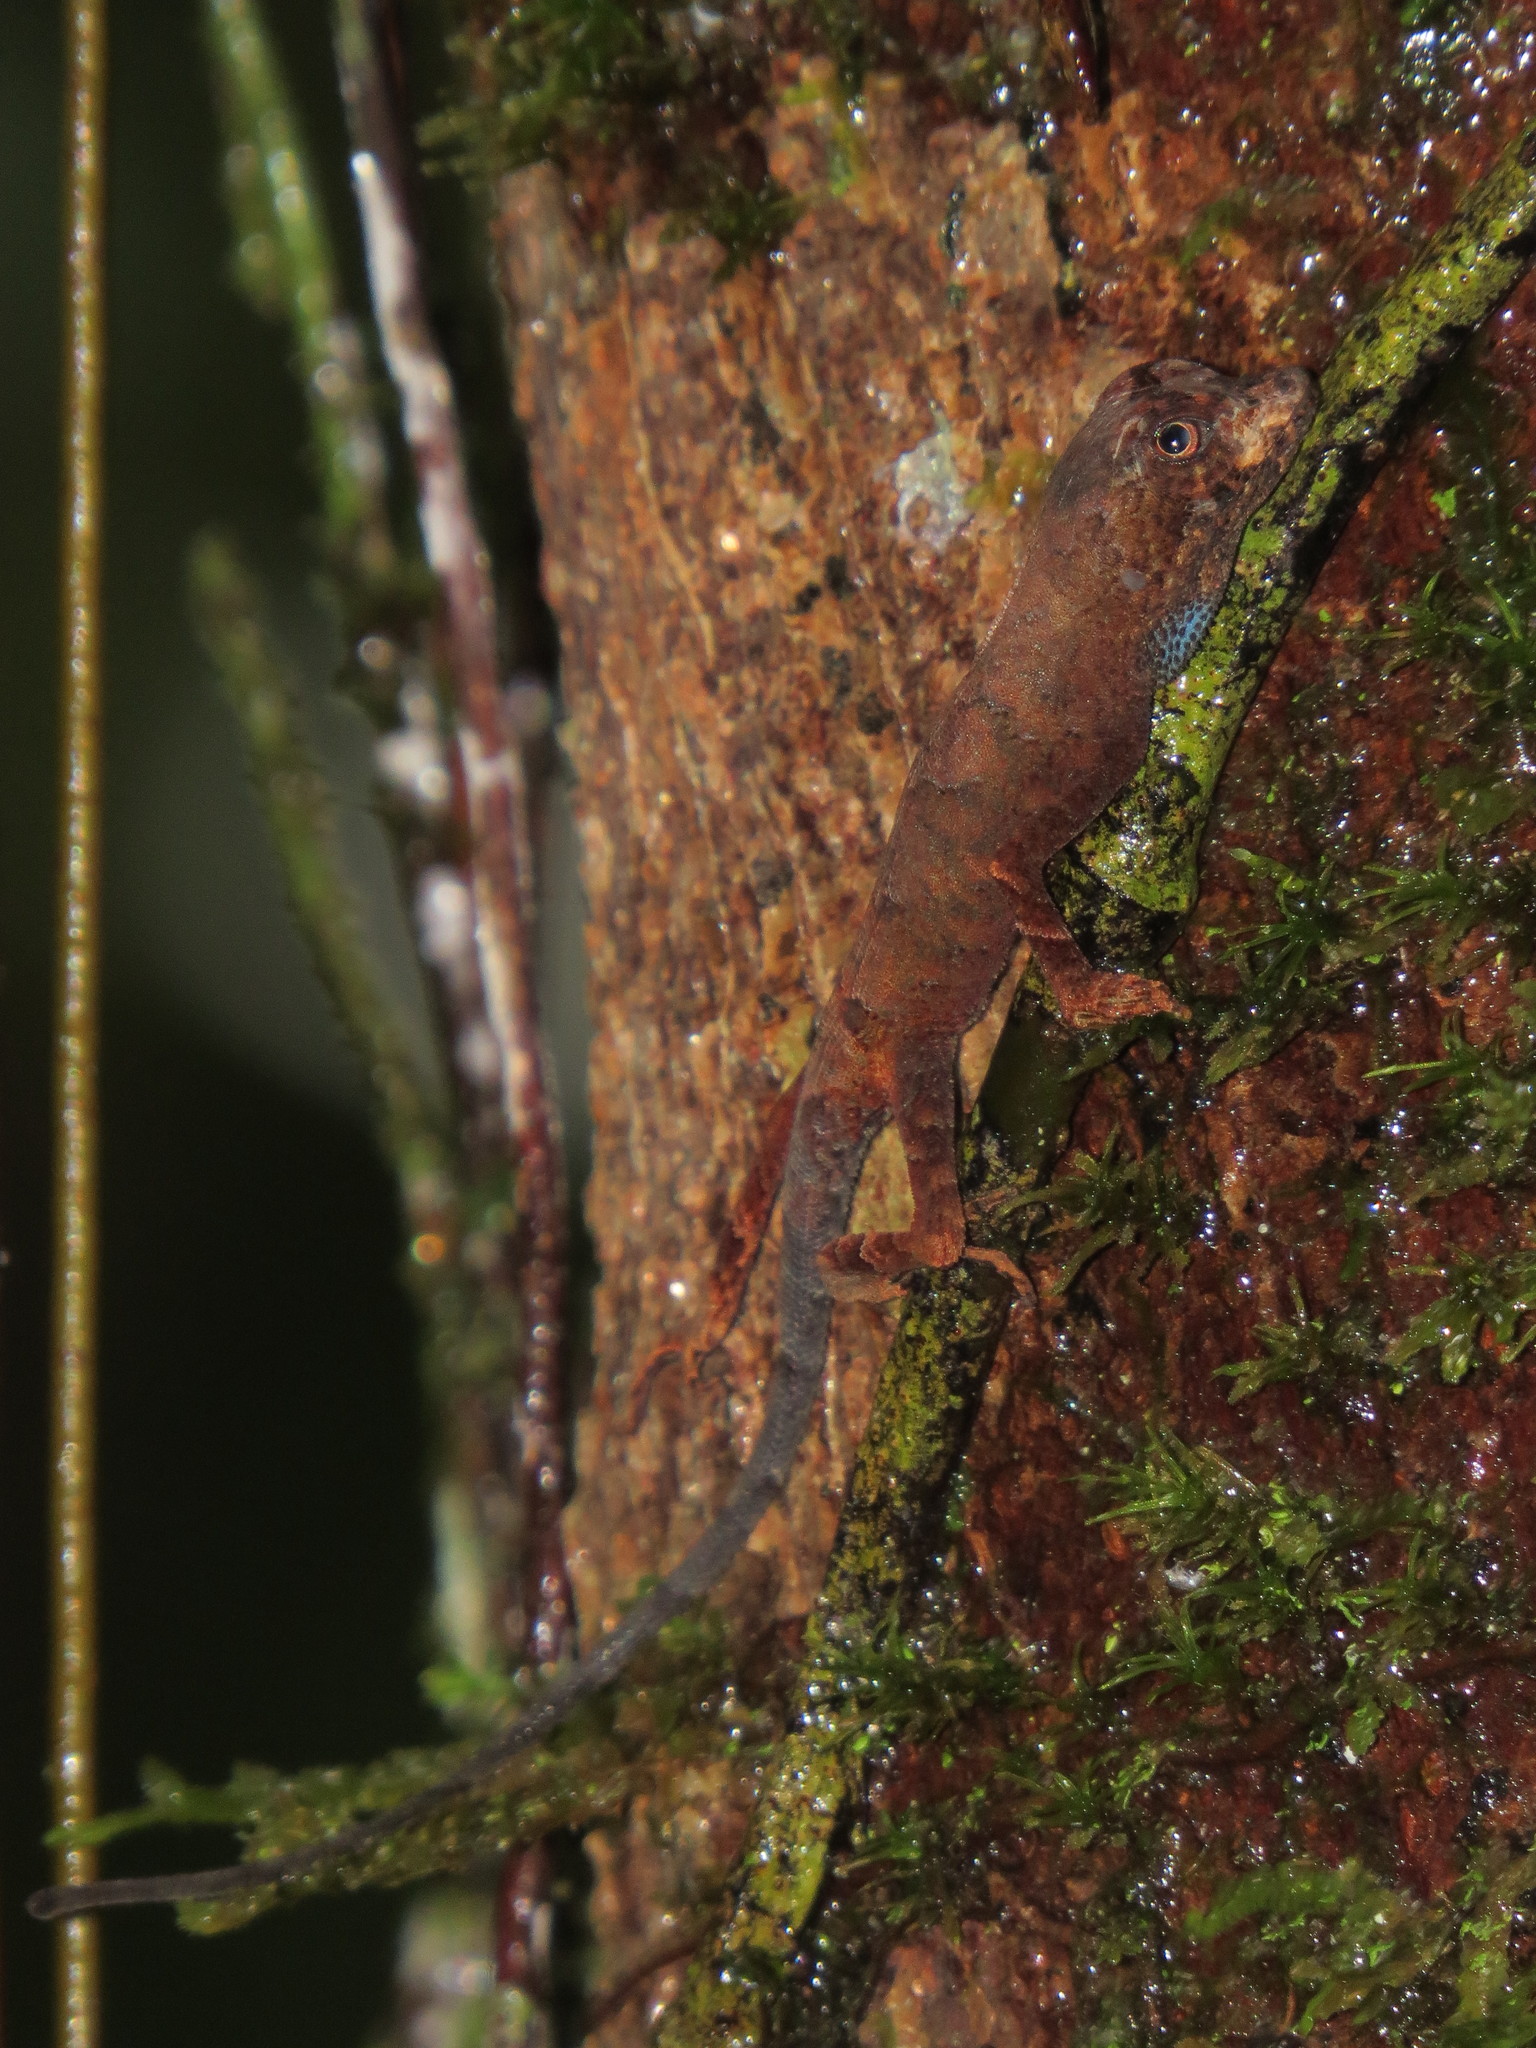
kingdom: Animalia
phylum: Chordata
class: Squamata
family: Dactyloidae
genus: Anolis
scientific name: Anolis chrysolepis
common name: Goldenscale anole
